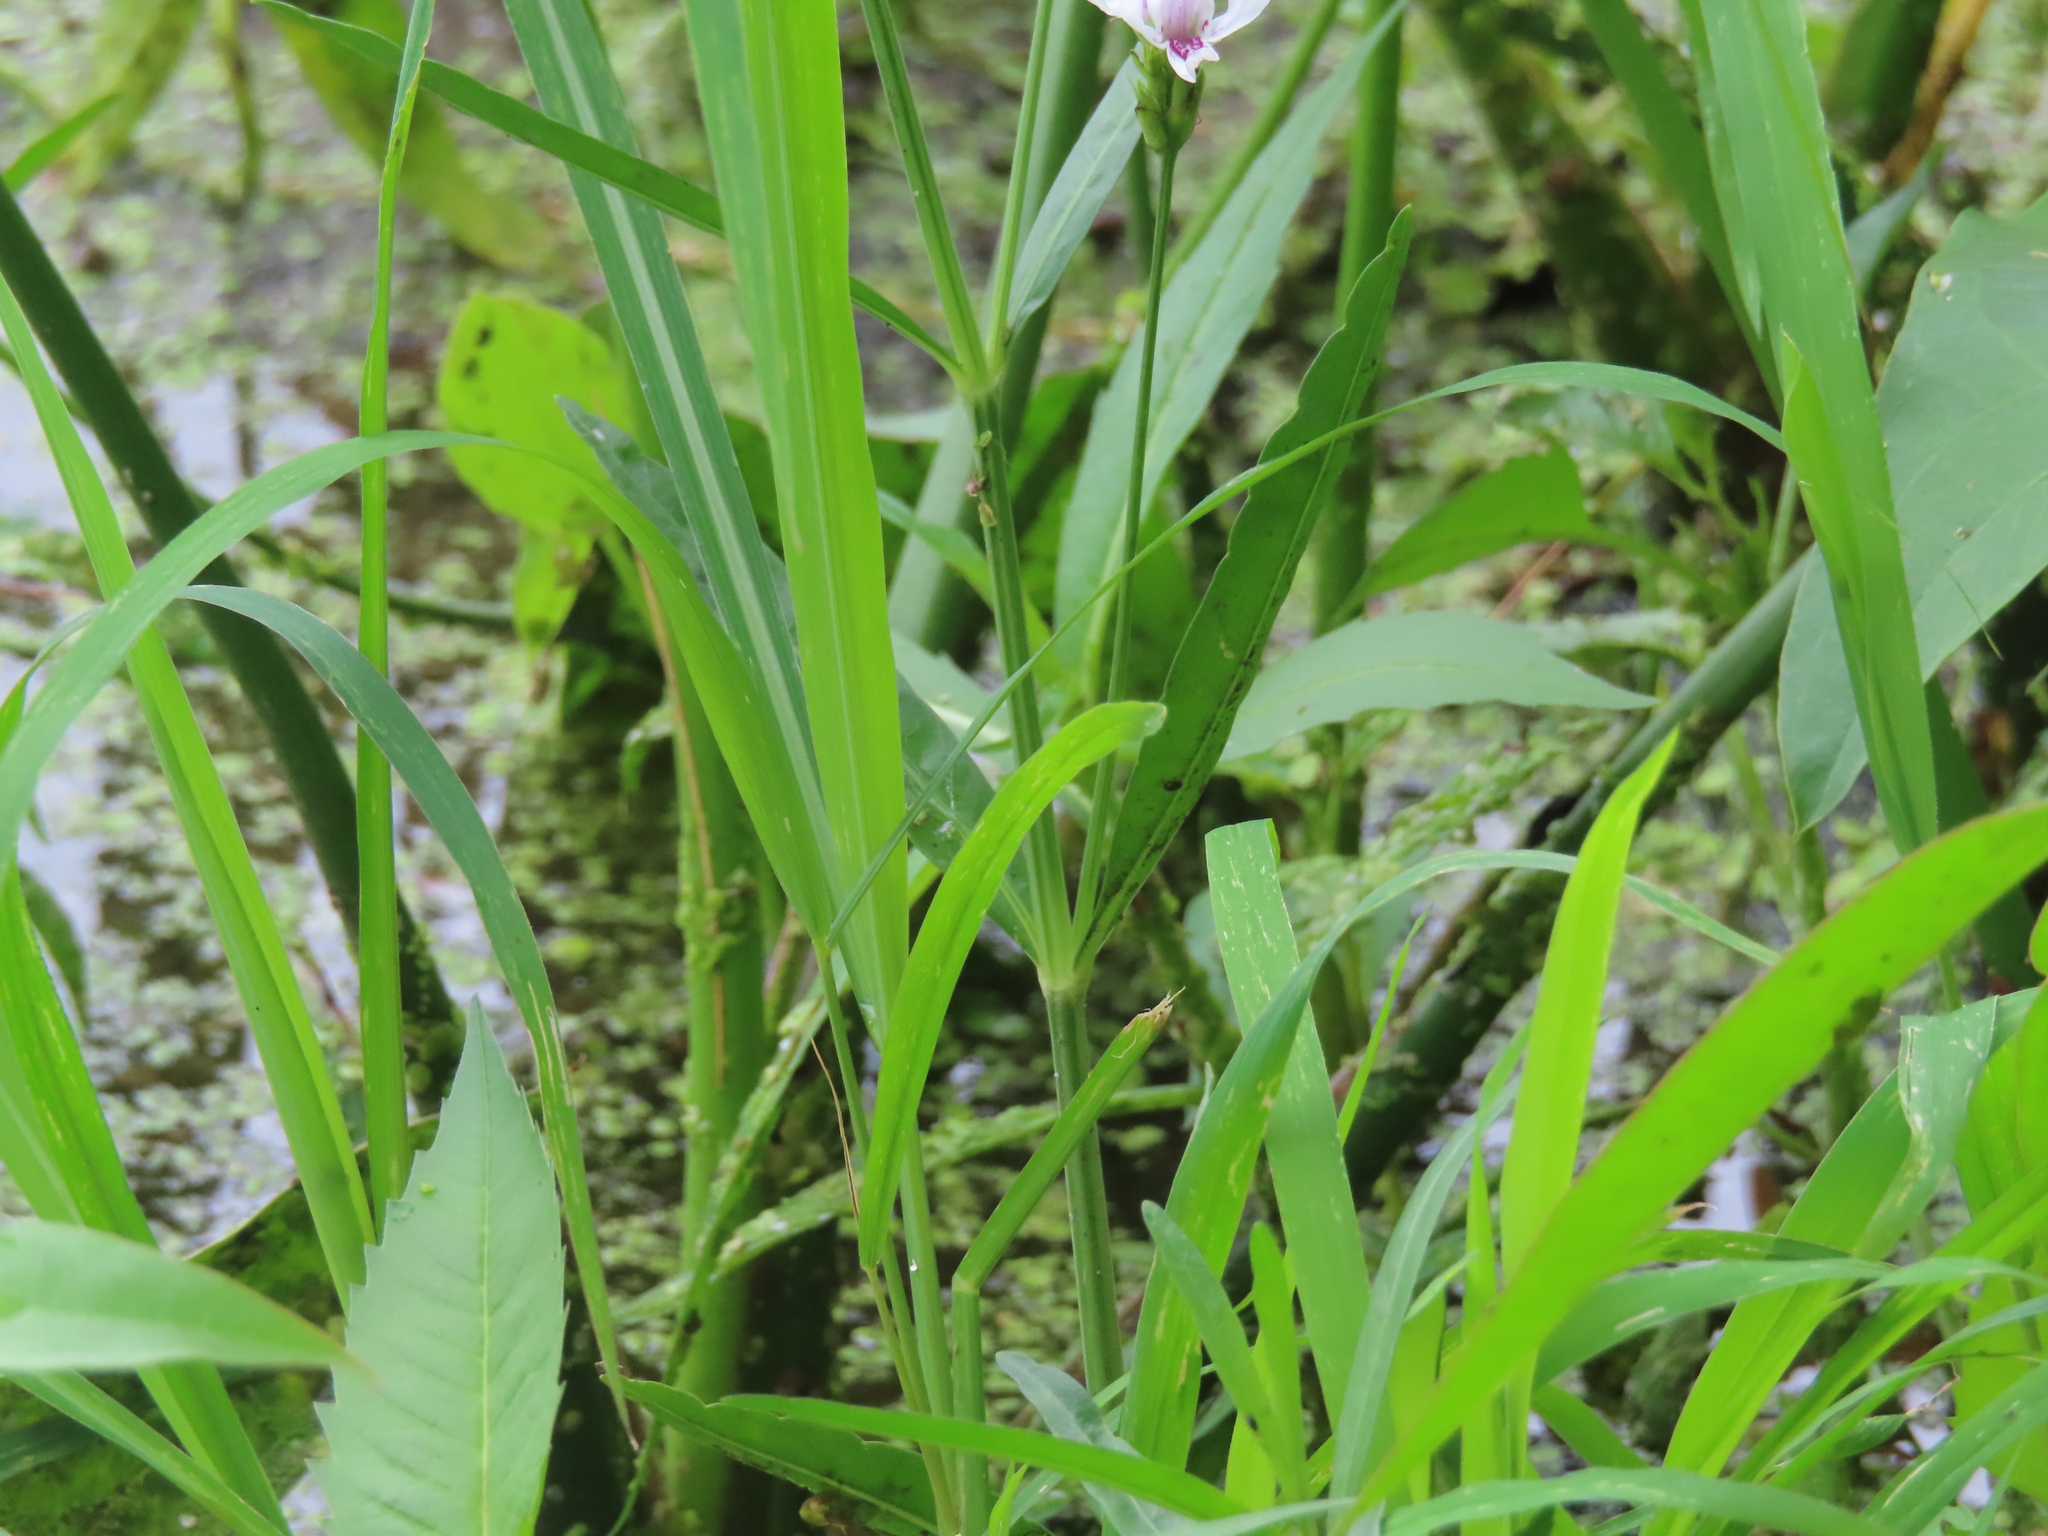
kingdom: Plantae
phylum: Tracheophyta
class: Magnoliopsida
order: Lamiales
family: Acanthaceae
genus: Dianthera
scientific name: Dianthera americana
